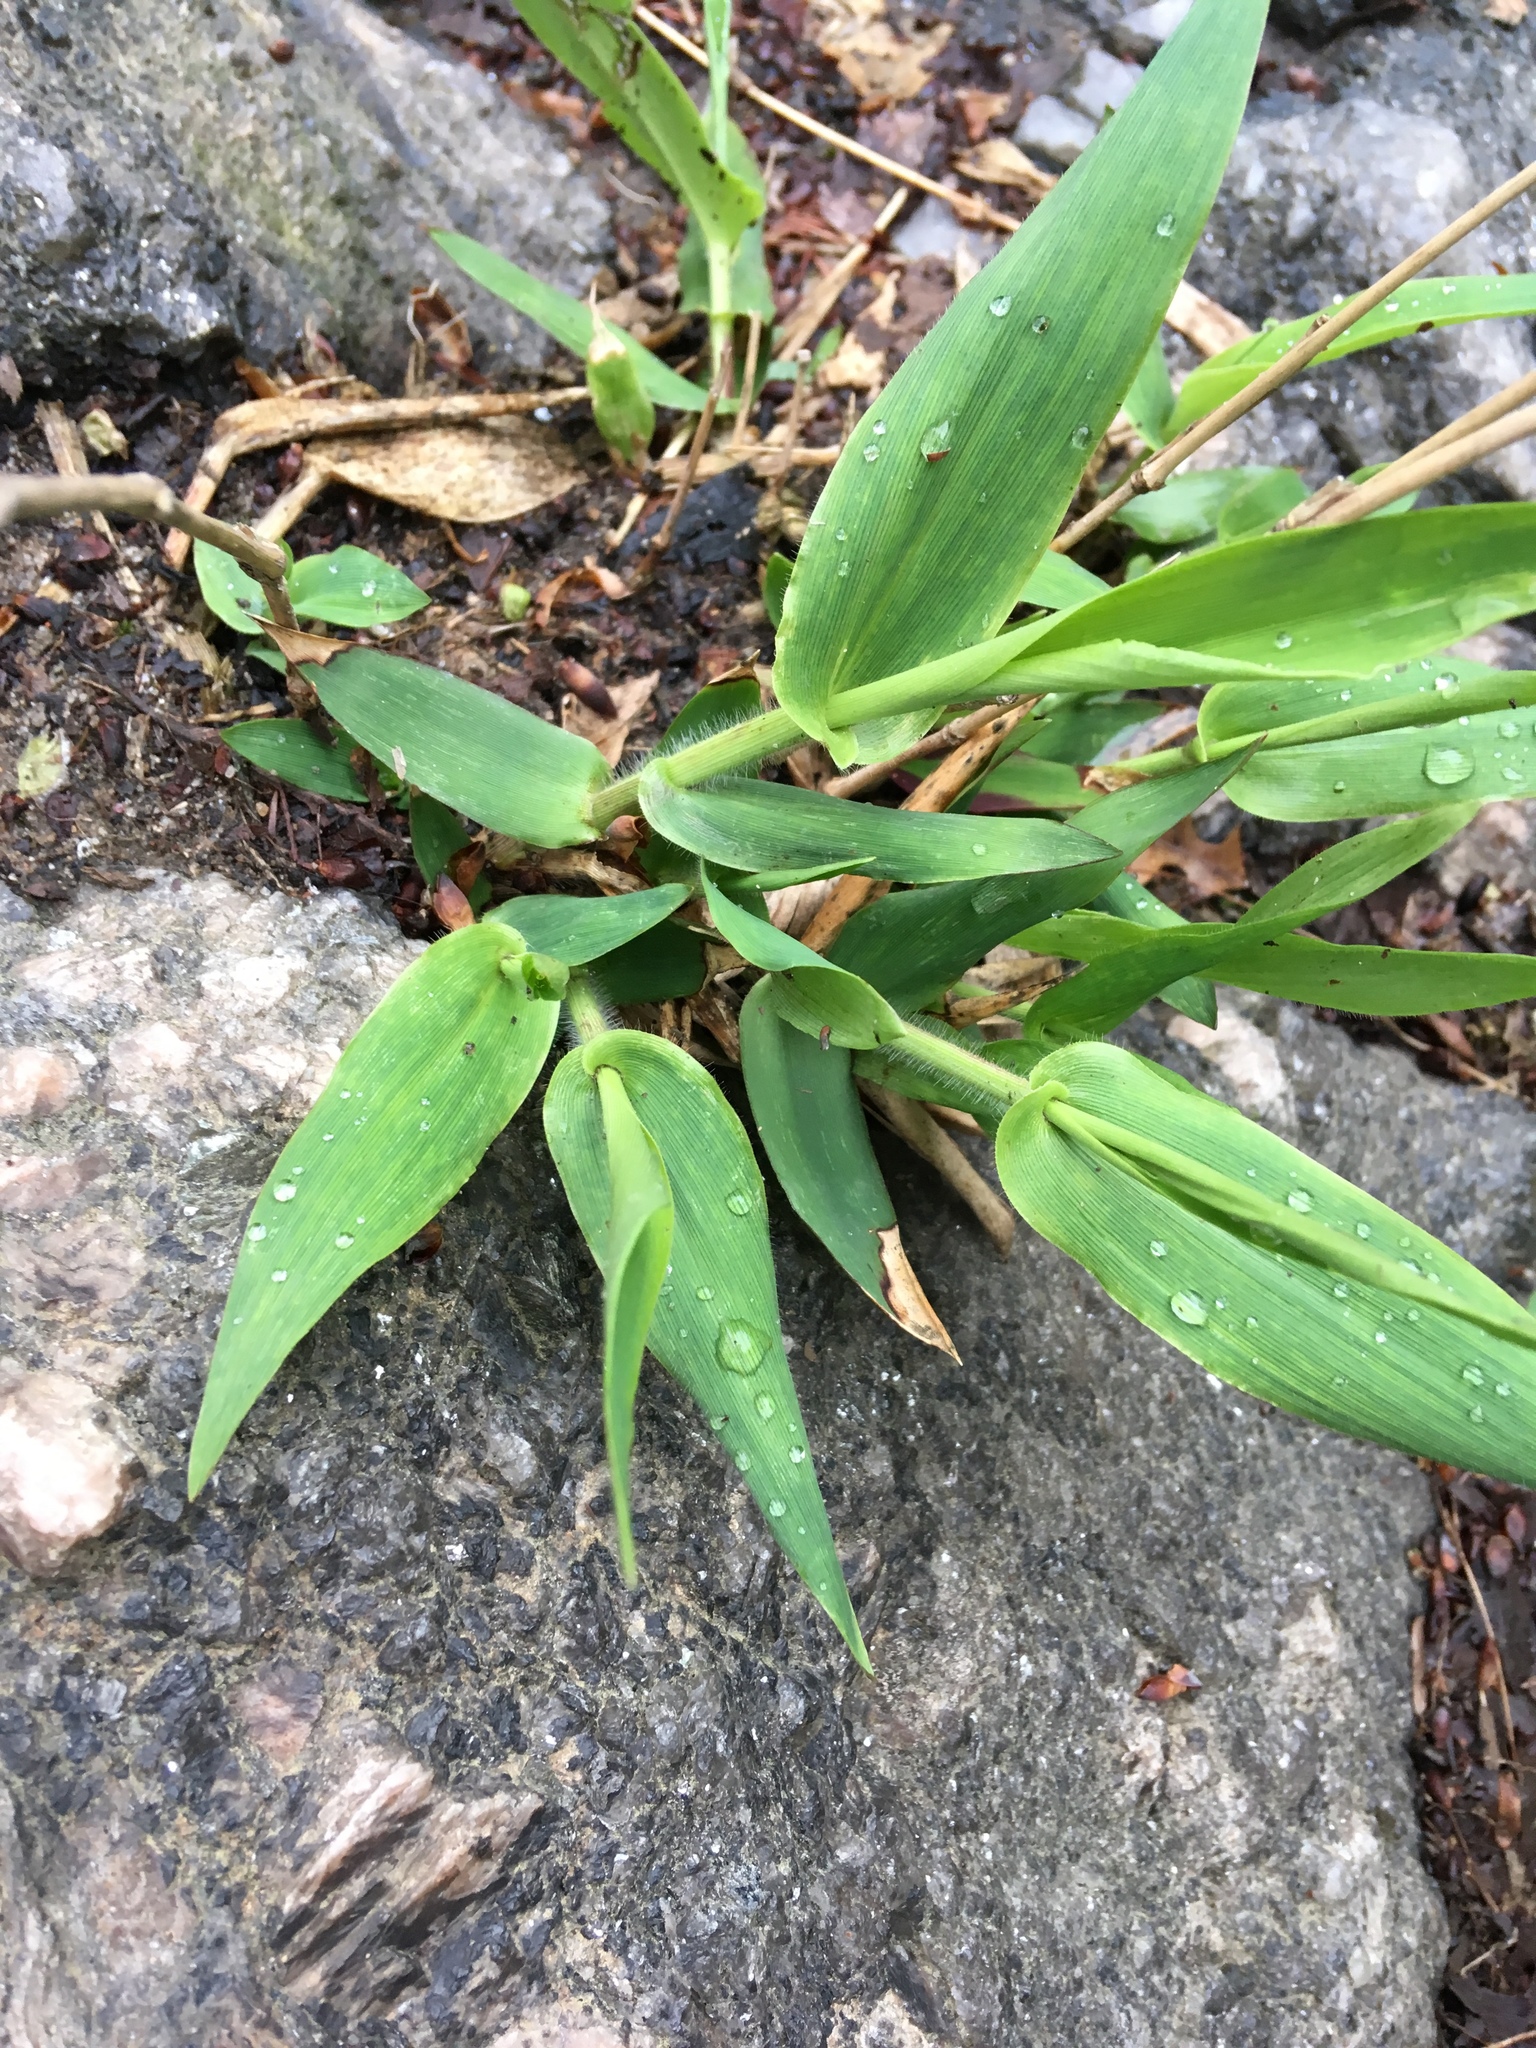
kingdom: Plantae
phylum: Tracheophyta
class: Liliopsida
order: Poales
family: Poaceae
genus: Dichanthelium
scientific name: Dichanthelium clandestinum
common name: Deer-tongue grass
